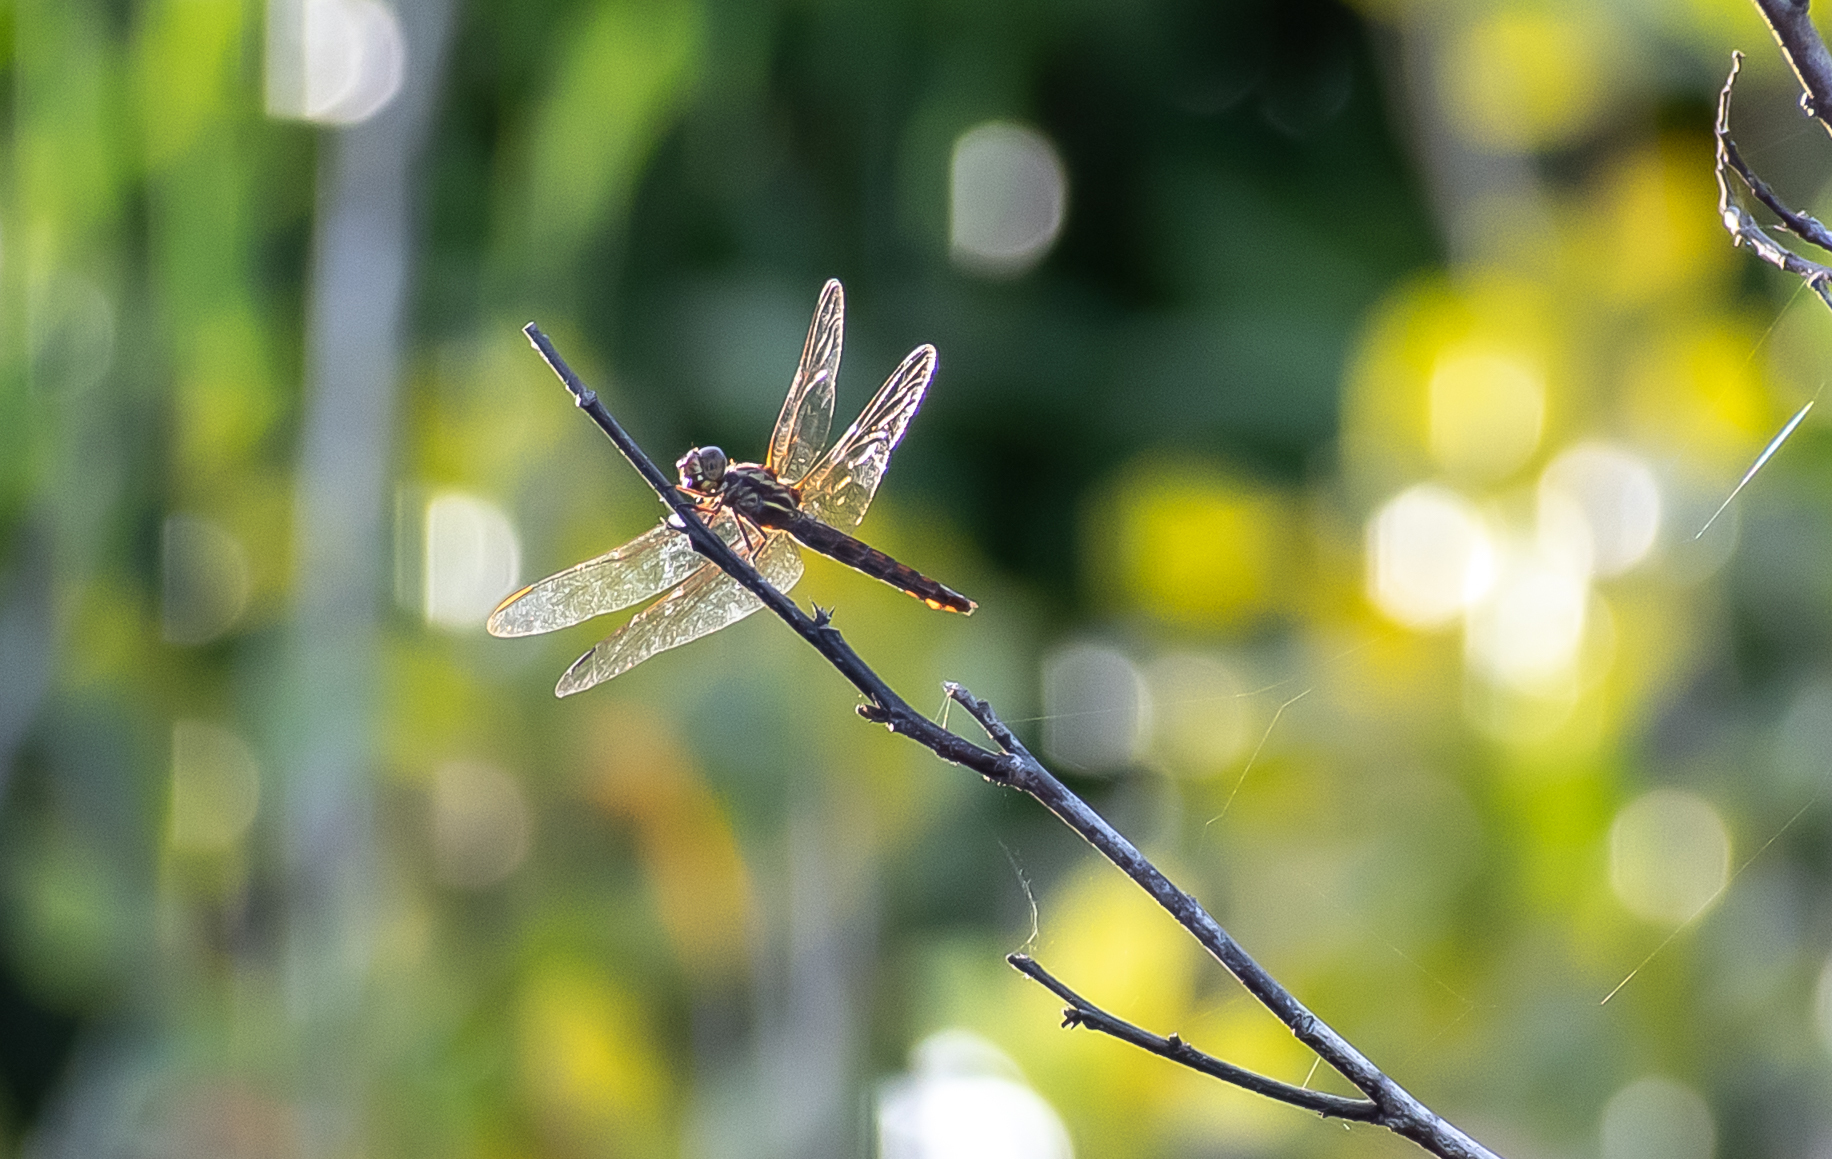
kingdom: Animalia
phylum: Arthropoda
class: Insecta
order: Odonata
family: Libellulidae
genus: Orthemis
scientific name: Orthemis aequilibris
